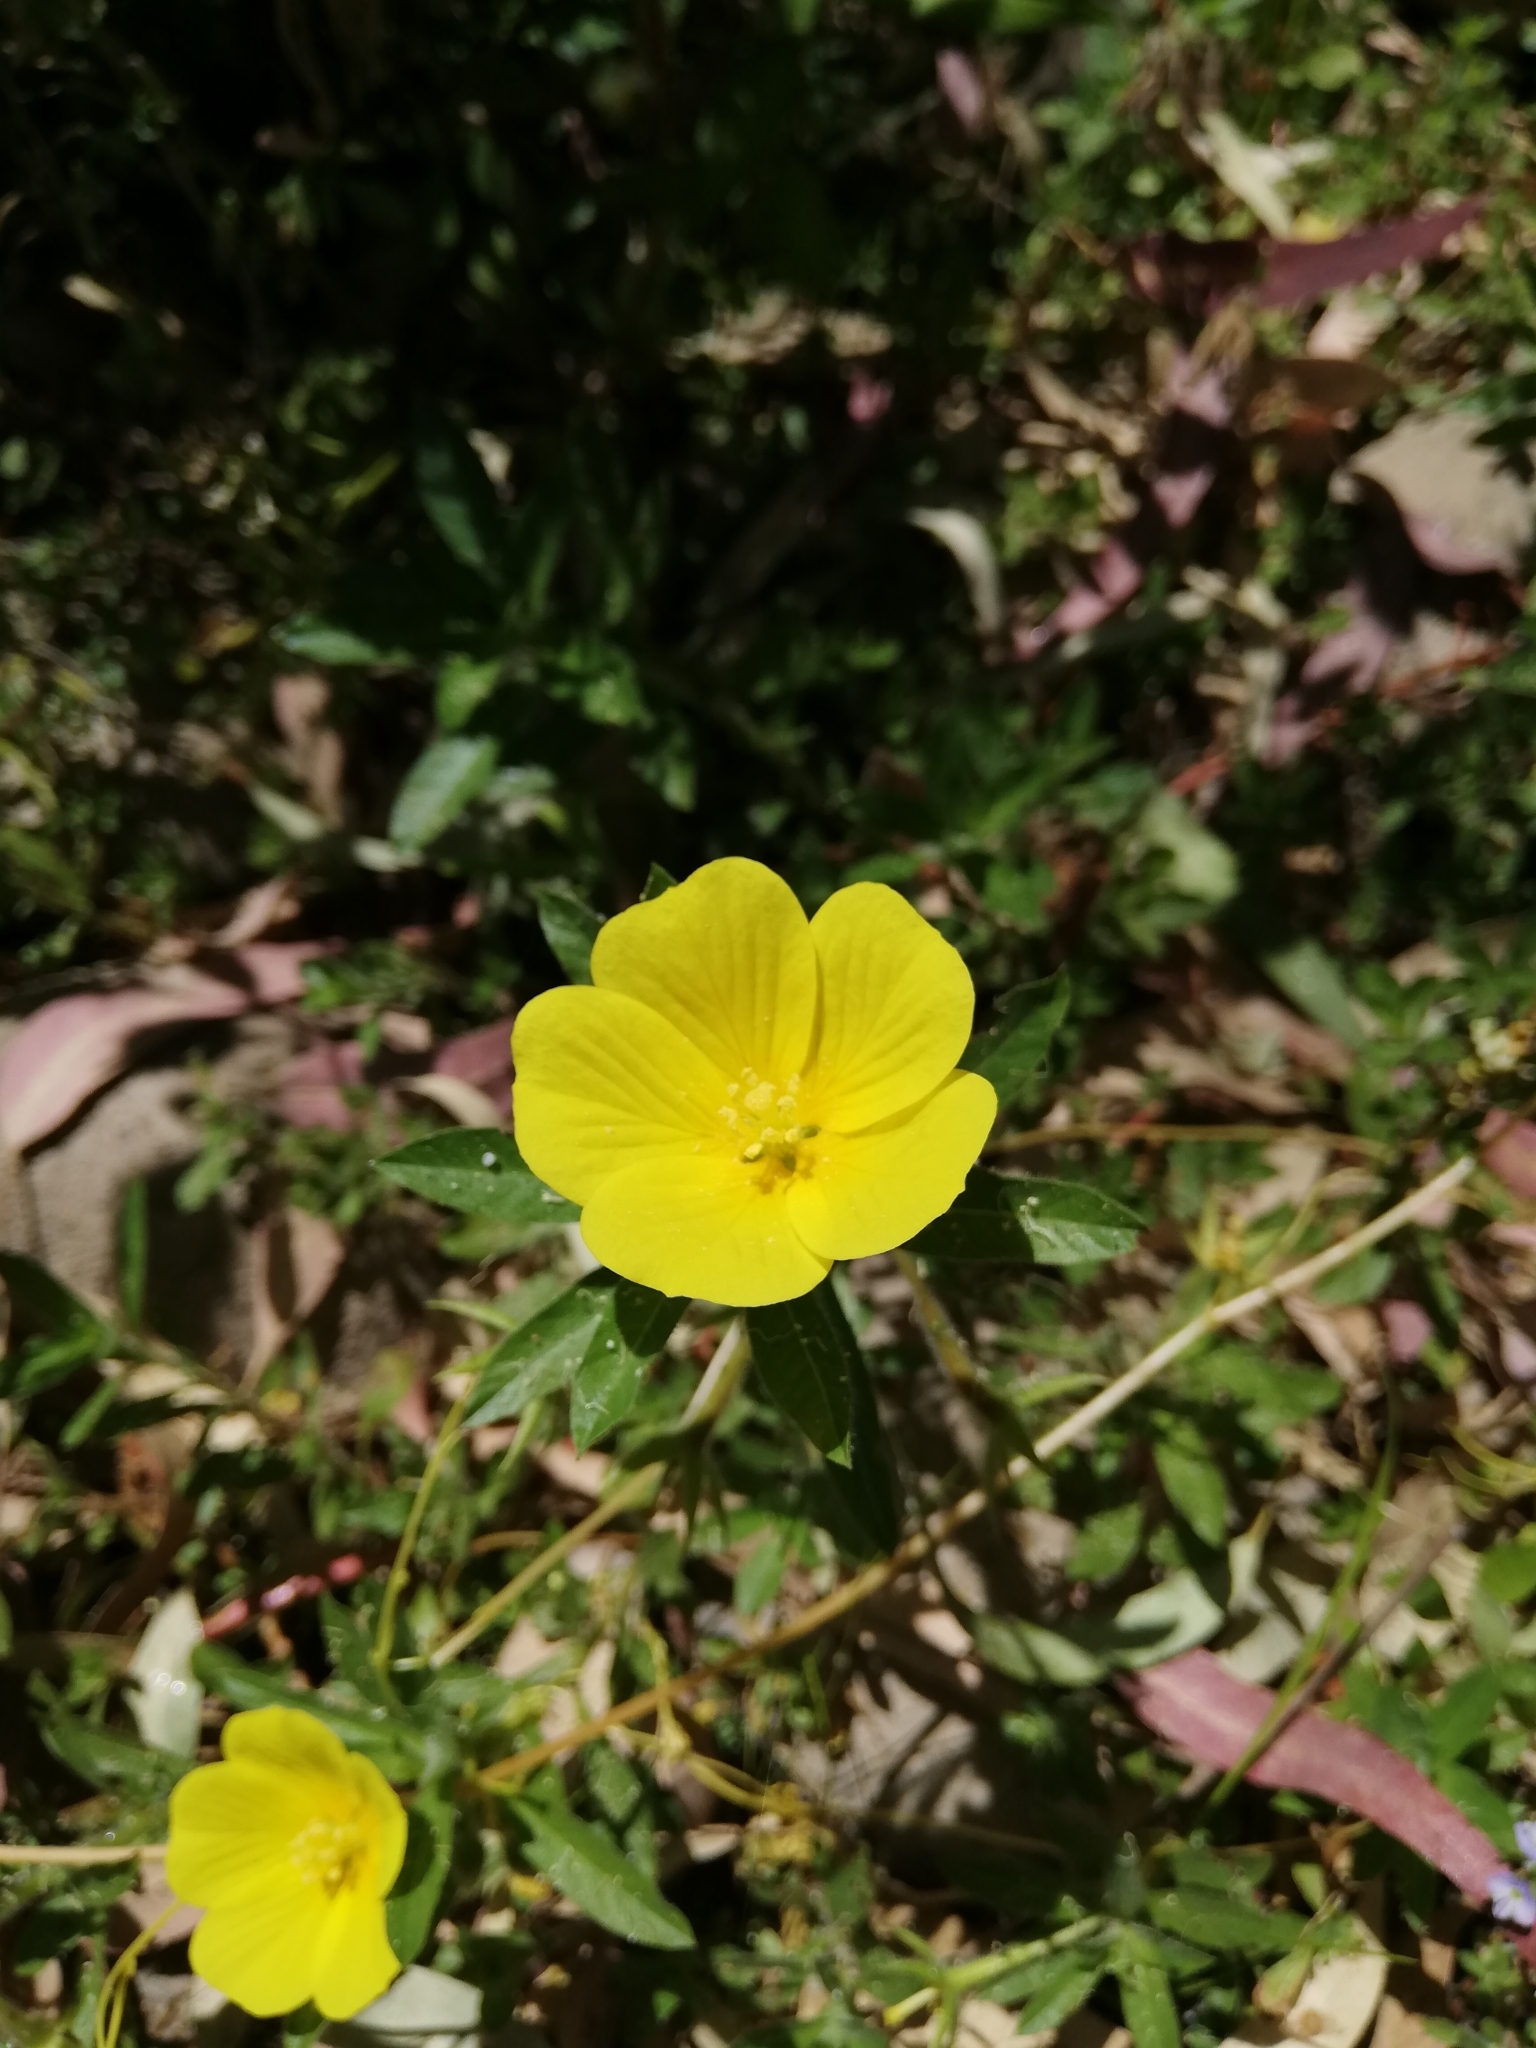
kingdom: Plantae
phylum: Tracheophyta
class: Magnoliopsida
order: Myrtales
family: Onagraceae
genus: Ludwigia
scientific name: Ludwigia peploides
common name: Floating primrose-willow
